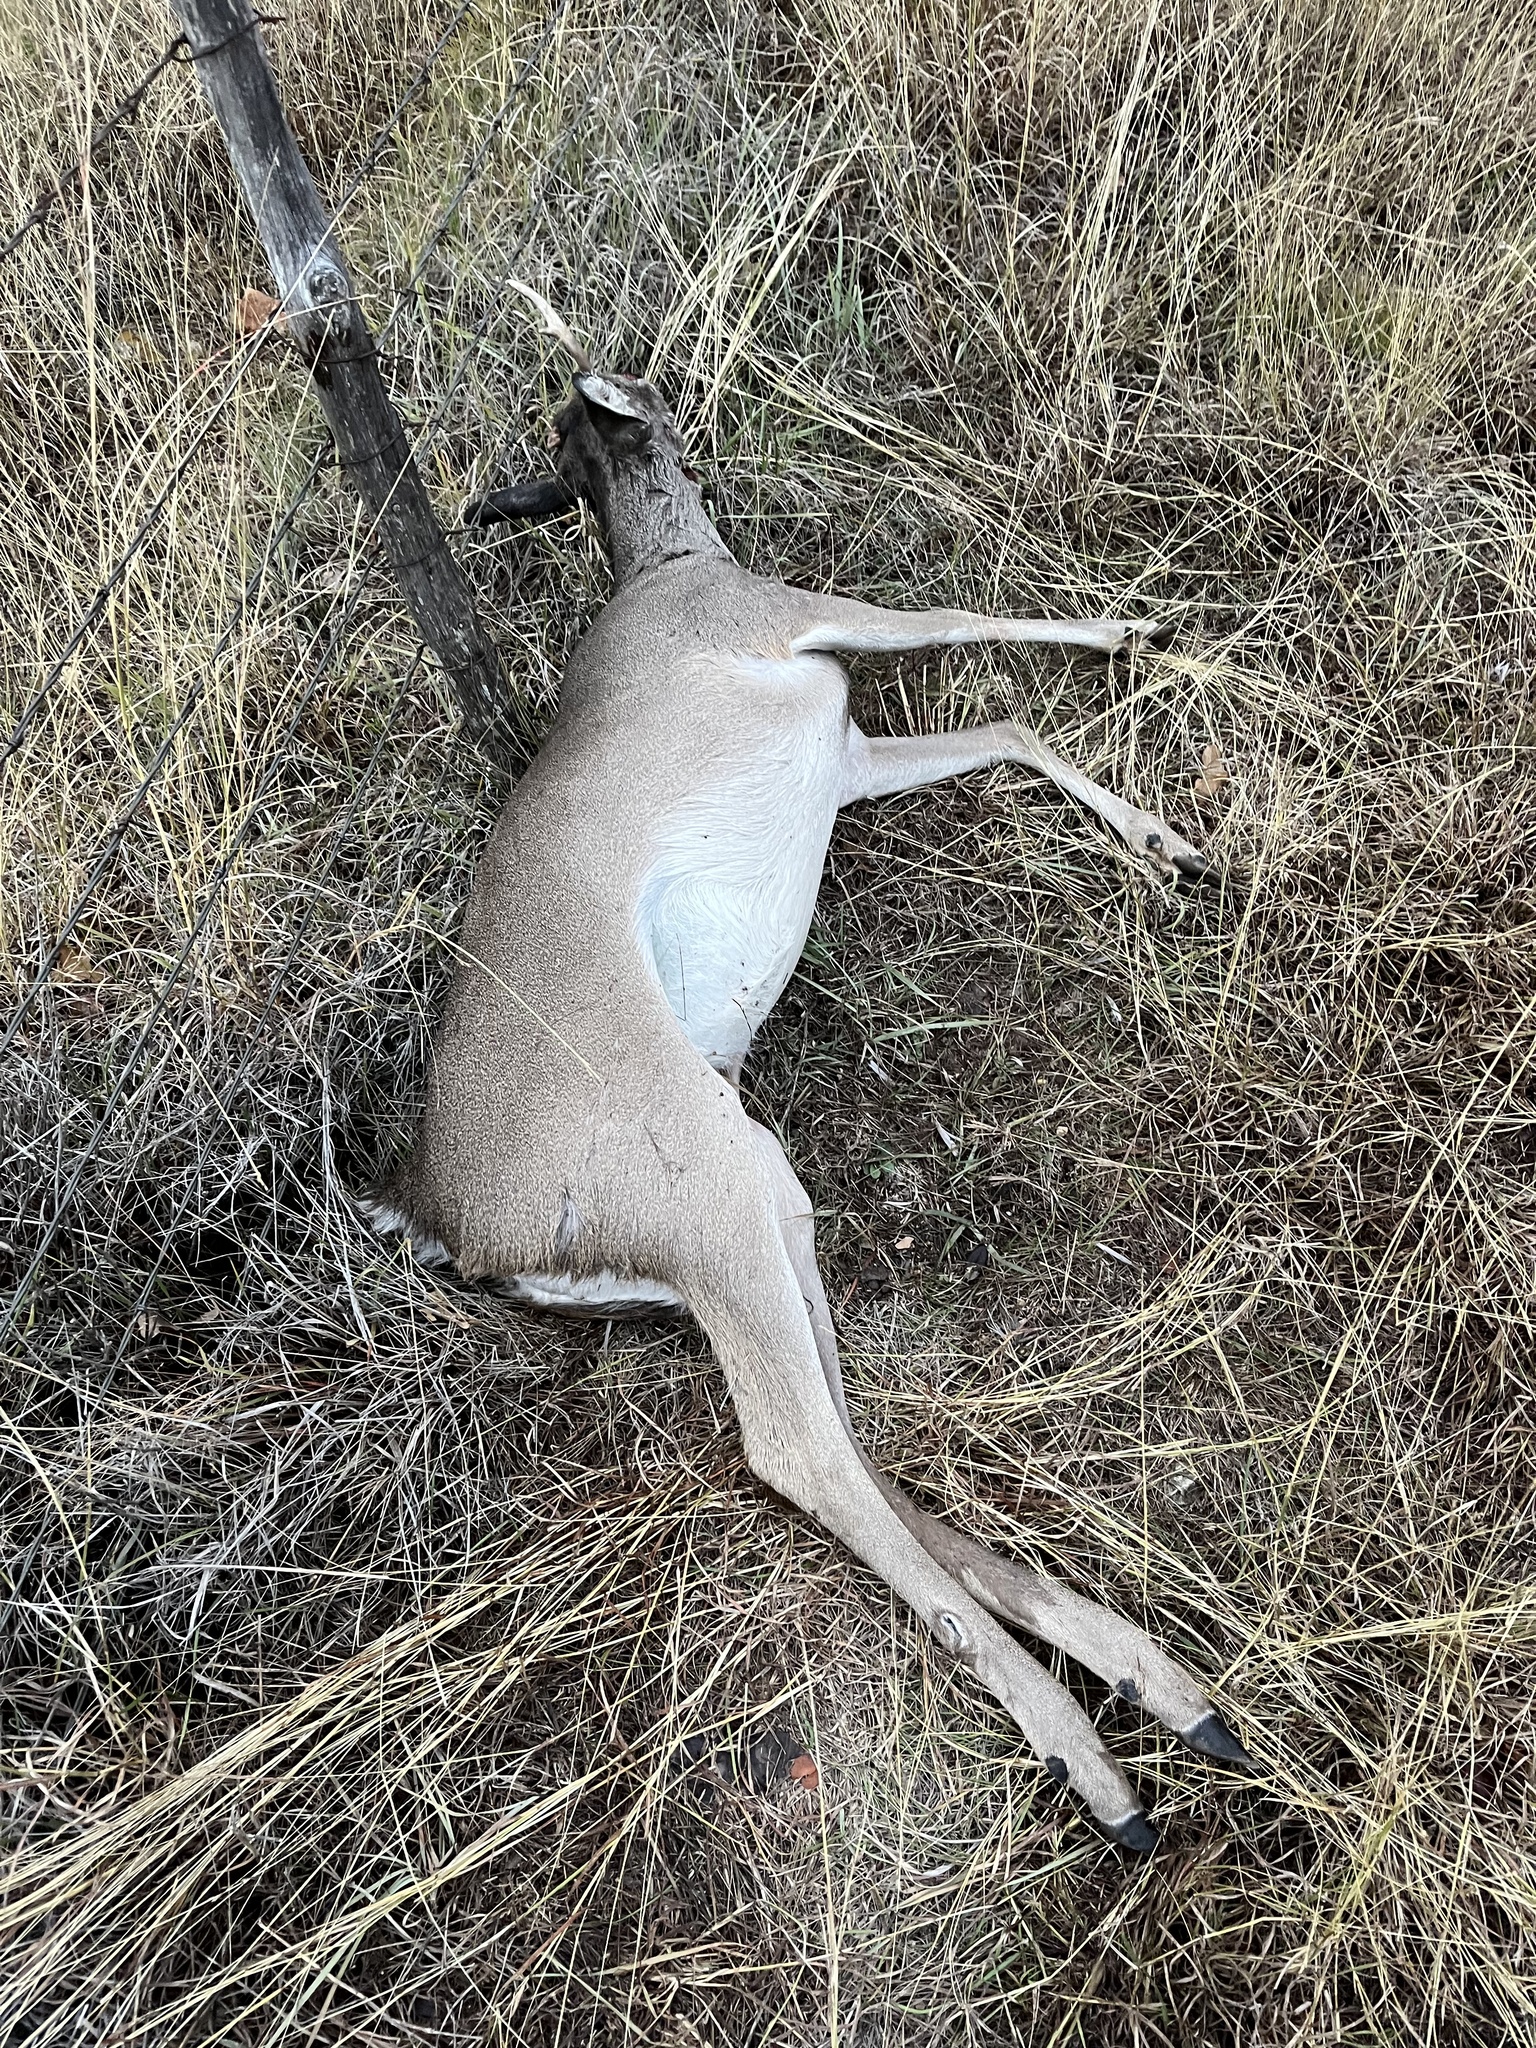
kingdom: Animalia
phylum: Chordata
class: Mammalia
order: Artiodactyla
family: Cervidae
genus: Odocoileus
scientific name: Odocoileus virginianus
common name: White-tailed deer
